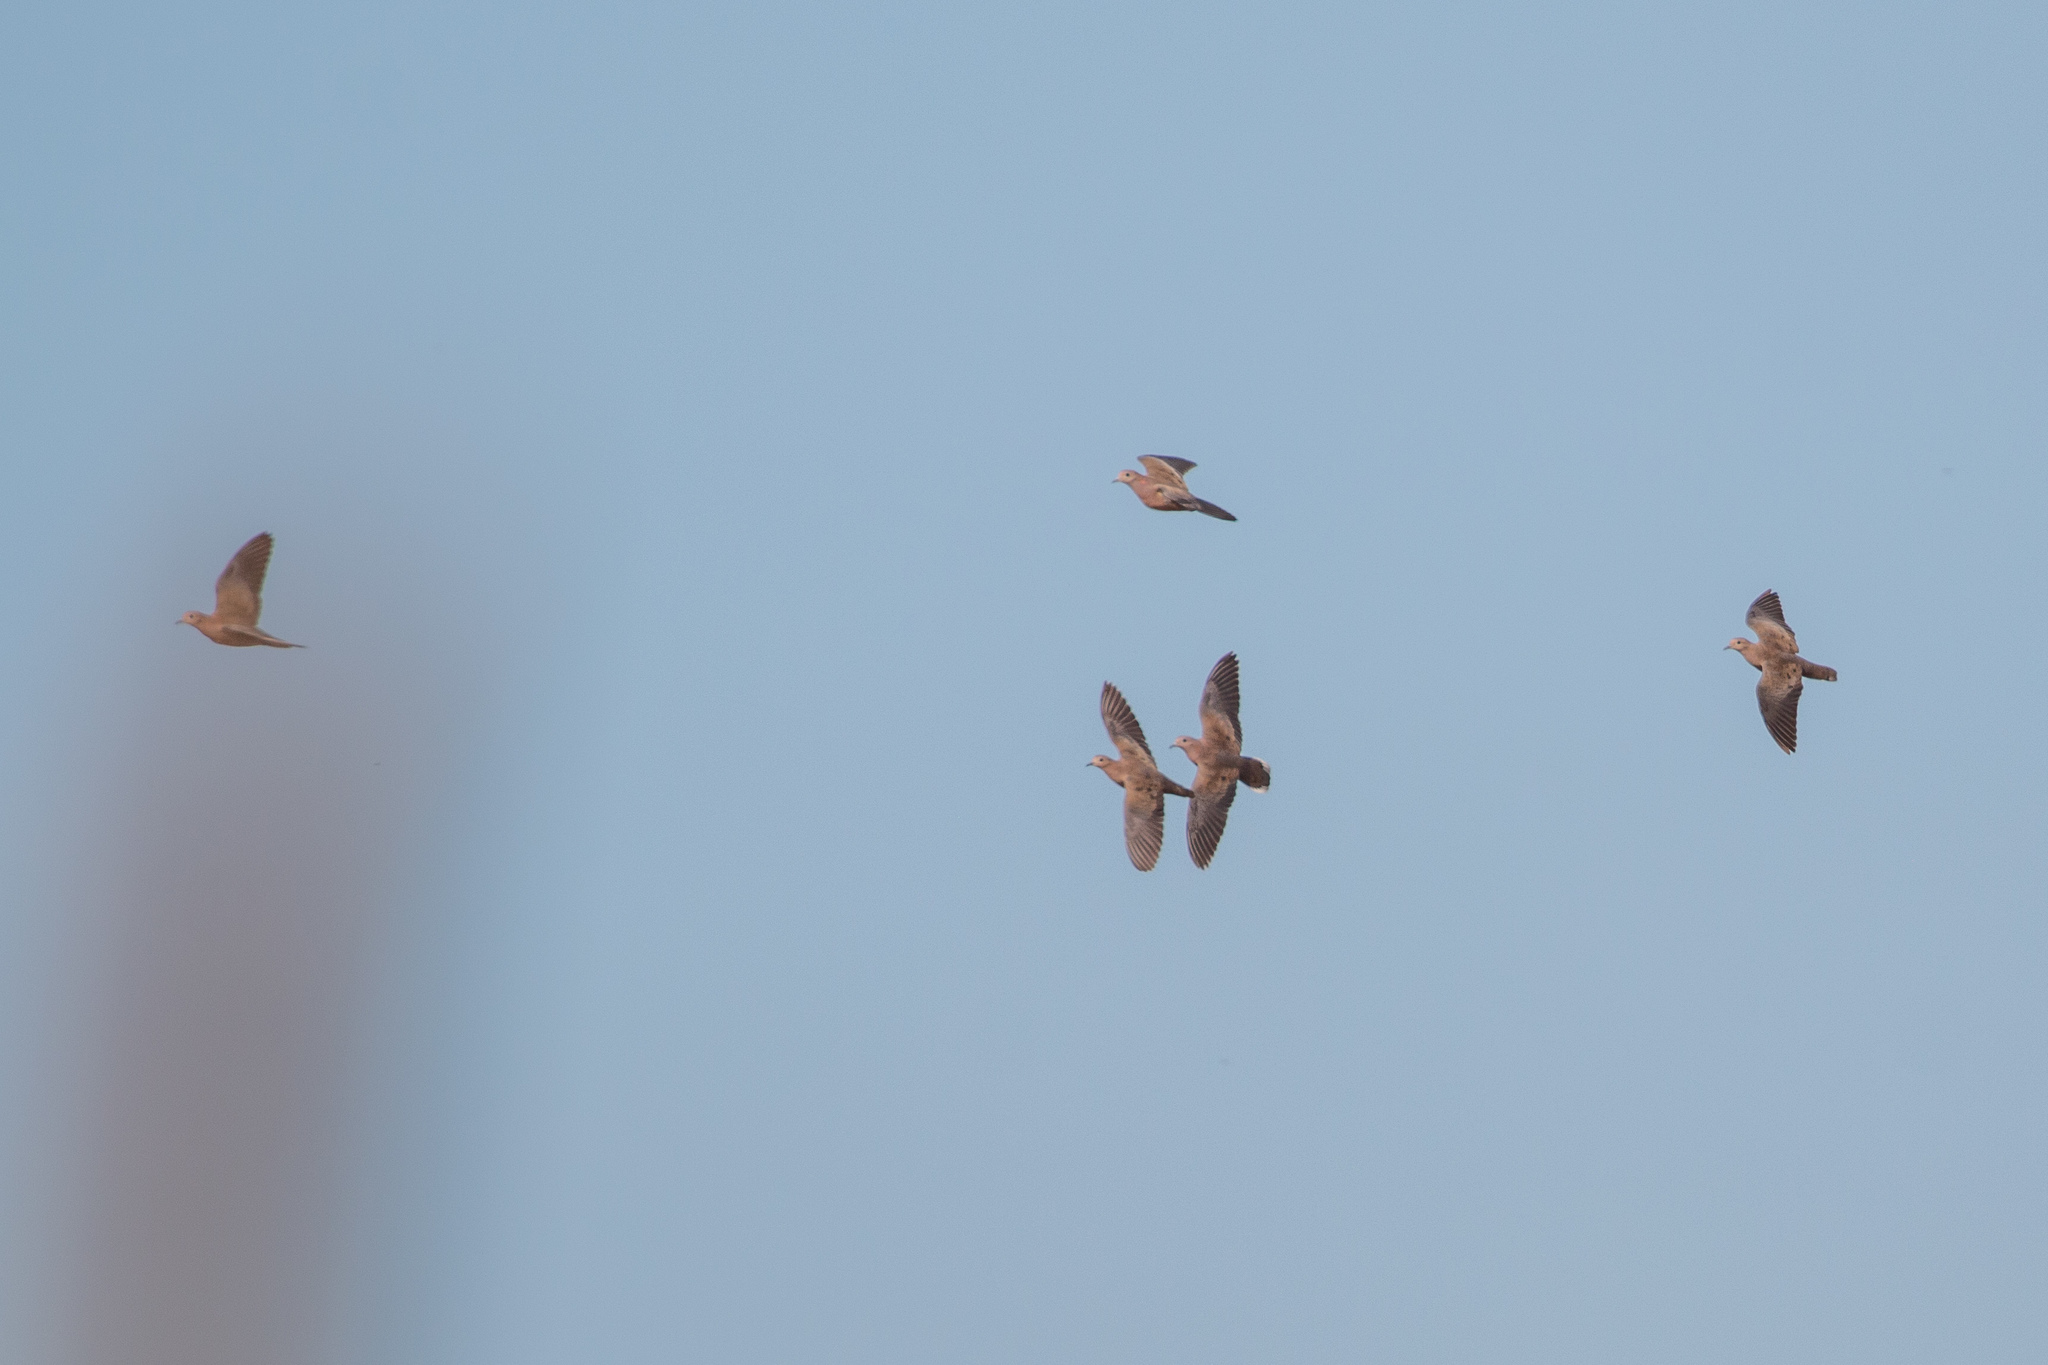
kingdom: Animalia
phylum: Chordata
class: Aves
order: Columbiformes
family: Columbidae
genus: Zenaida
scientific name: Zenaida auriculata
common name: Eared dove
